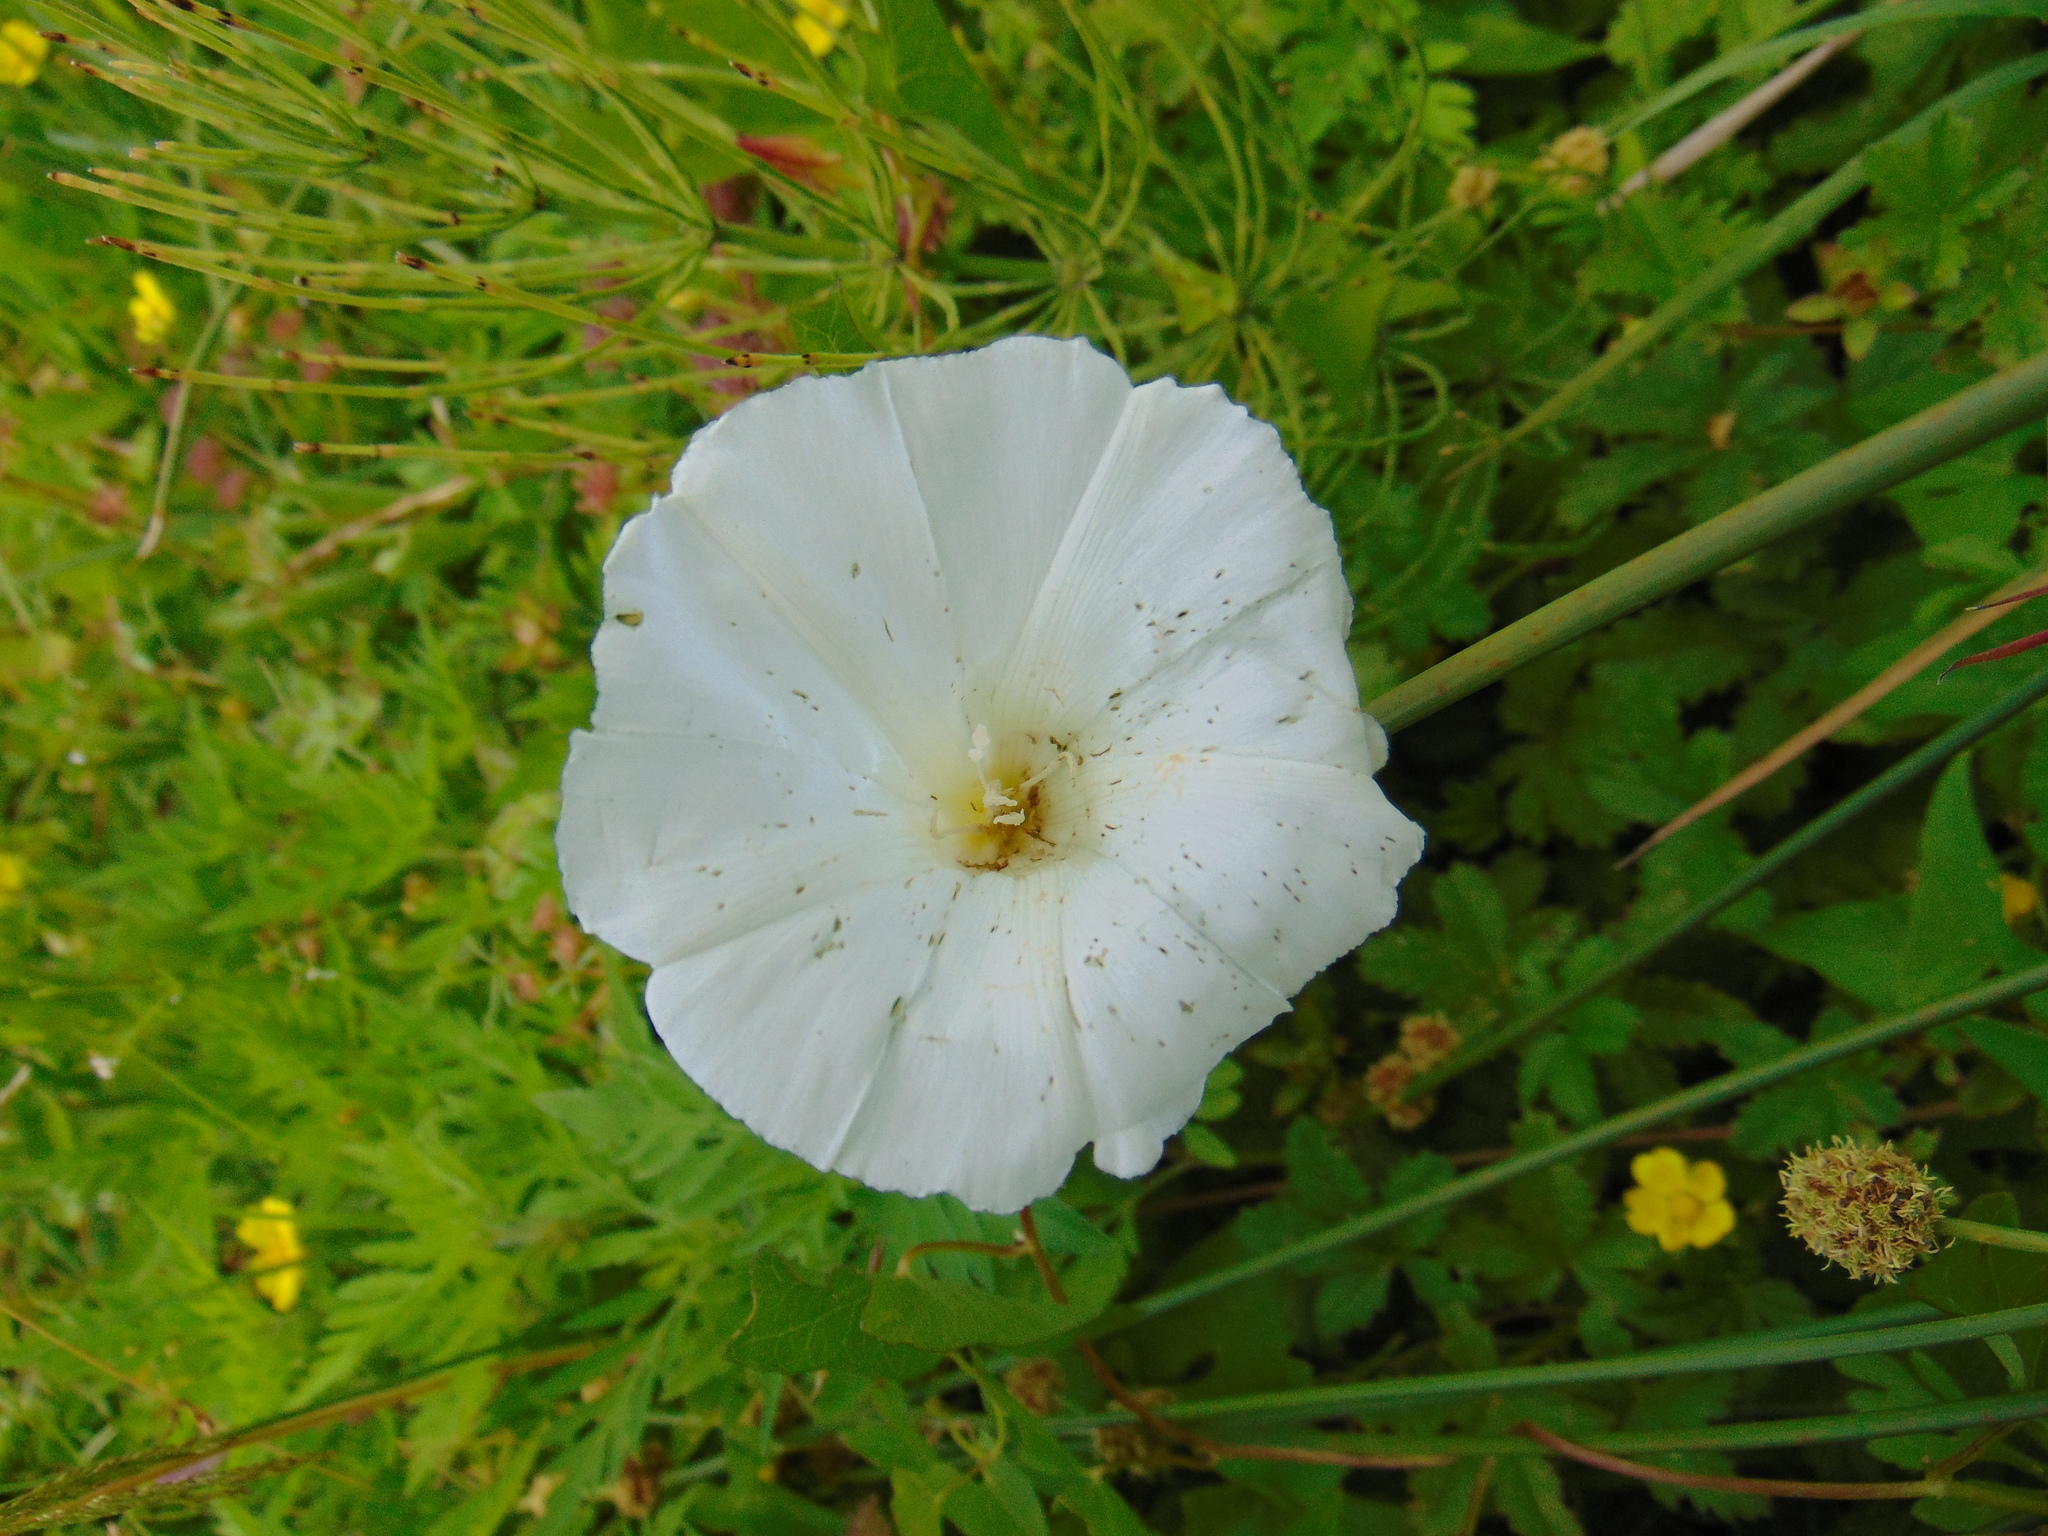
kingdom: Plantae
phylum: Tracheophyta
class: Magnoliopsida
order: Solanales
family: Convolvulaceae
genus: Calystegia
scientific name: Calystegia sepium
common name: Hedge bindweed
